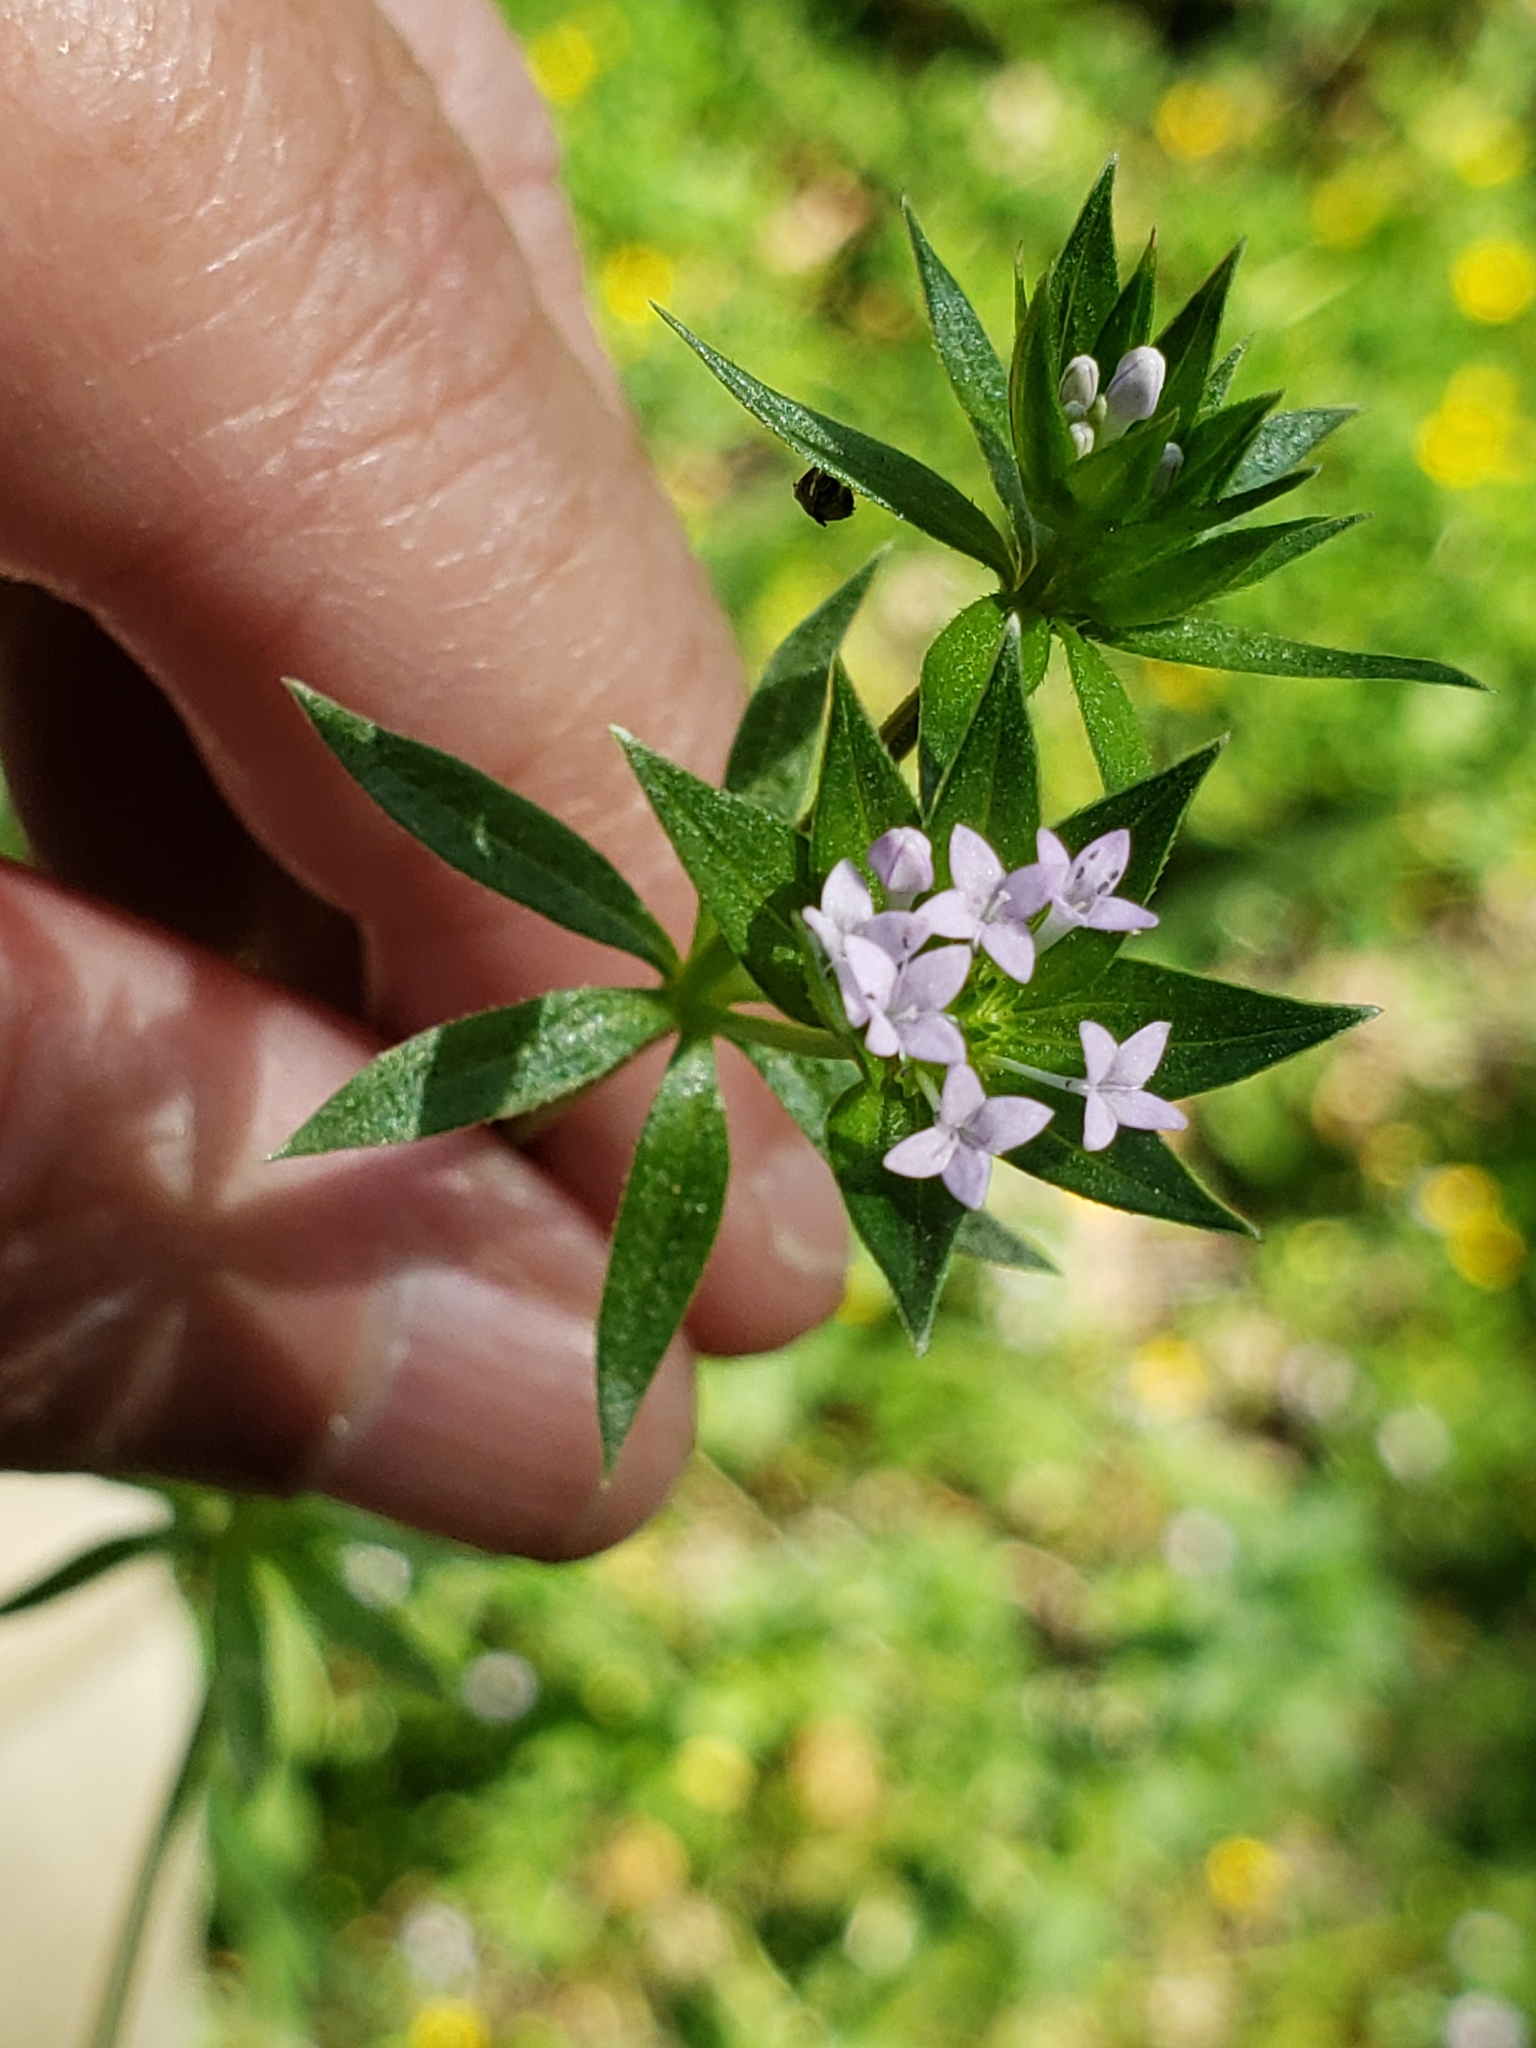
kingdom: Plantae
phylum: Tracheophyta
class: Magnoliopsida
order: Gentianales
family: Rubiaceae
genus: Sherardia
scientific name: Sherardia arvensis
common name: Field madder
